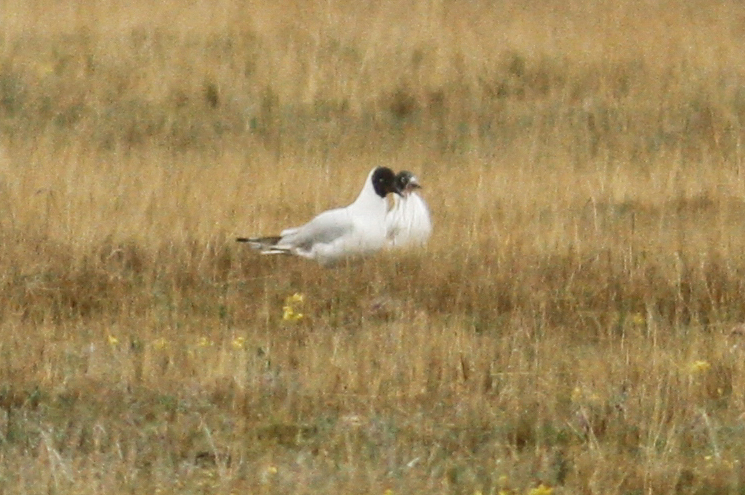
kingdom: Animalia
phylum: Chordata
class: Aves
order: Charadriiformes
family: Laridae
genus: Chroicocephalus
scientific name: Chroicocephalus serranus
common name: Andean gull
